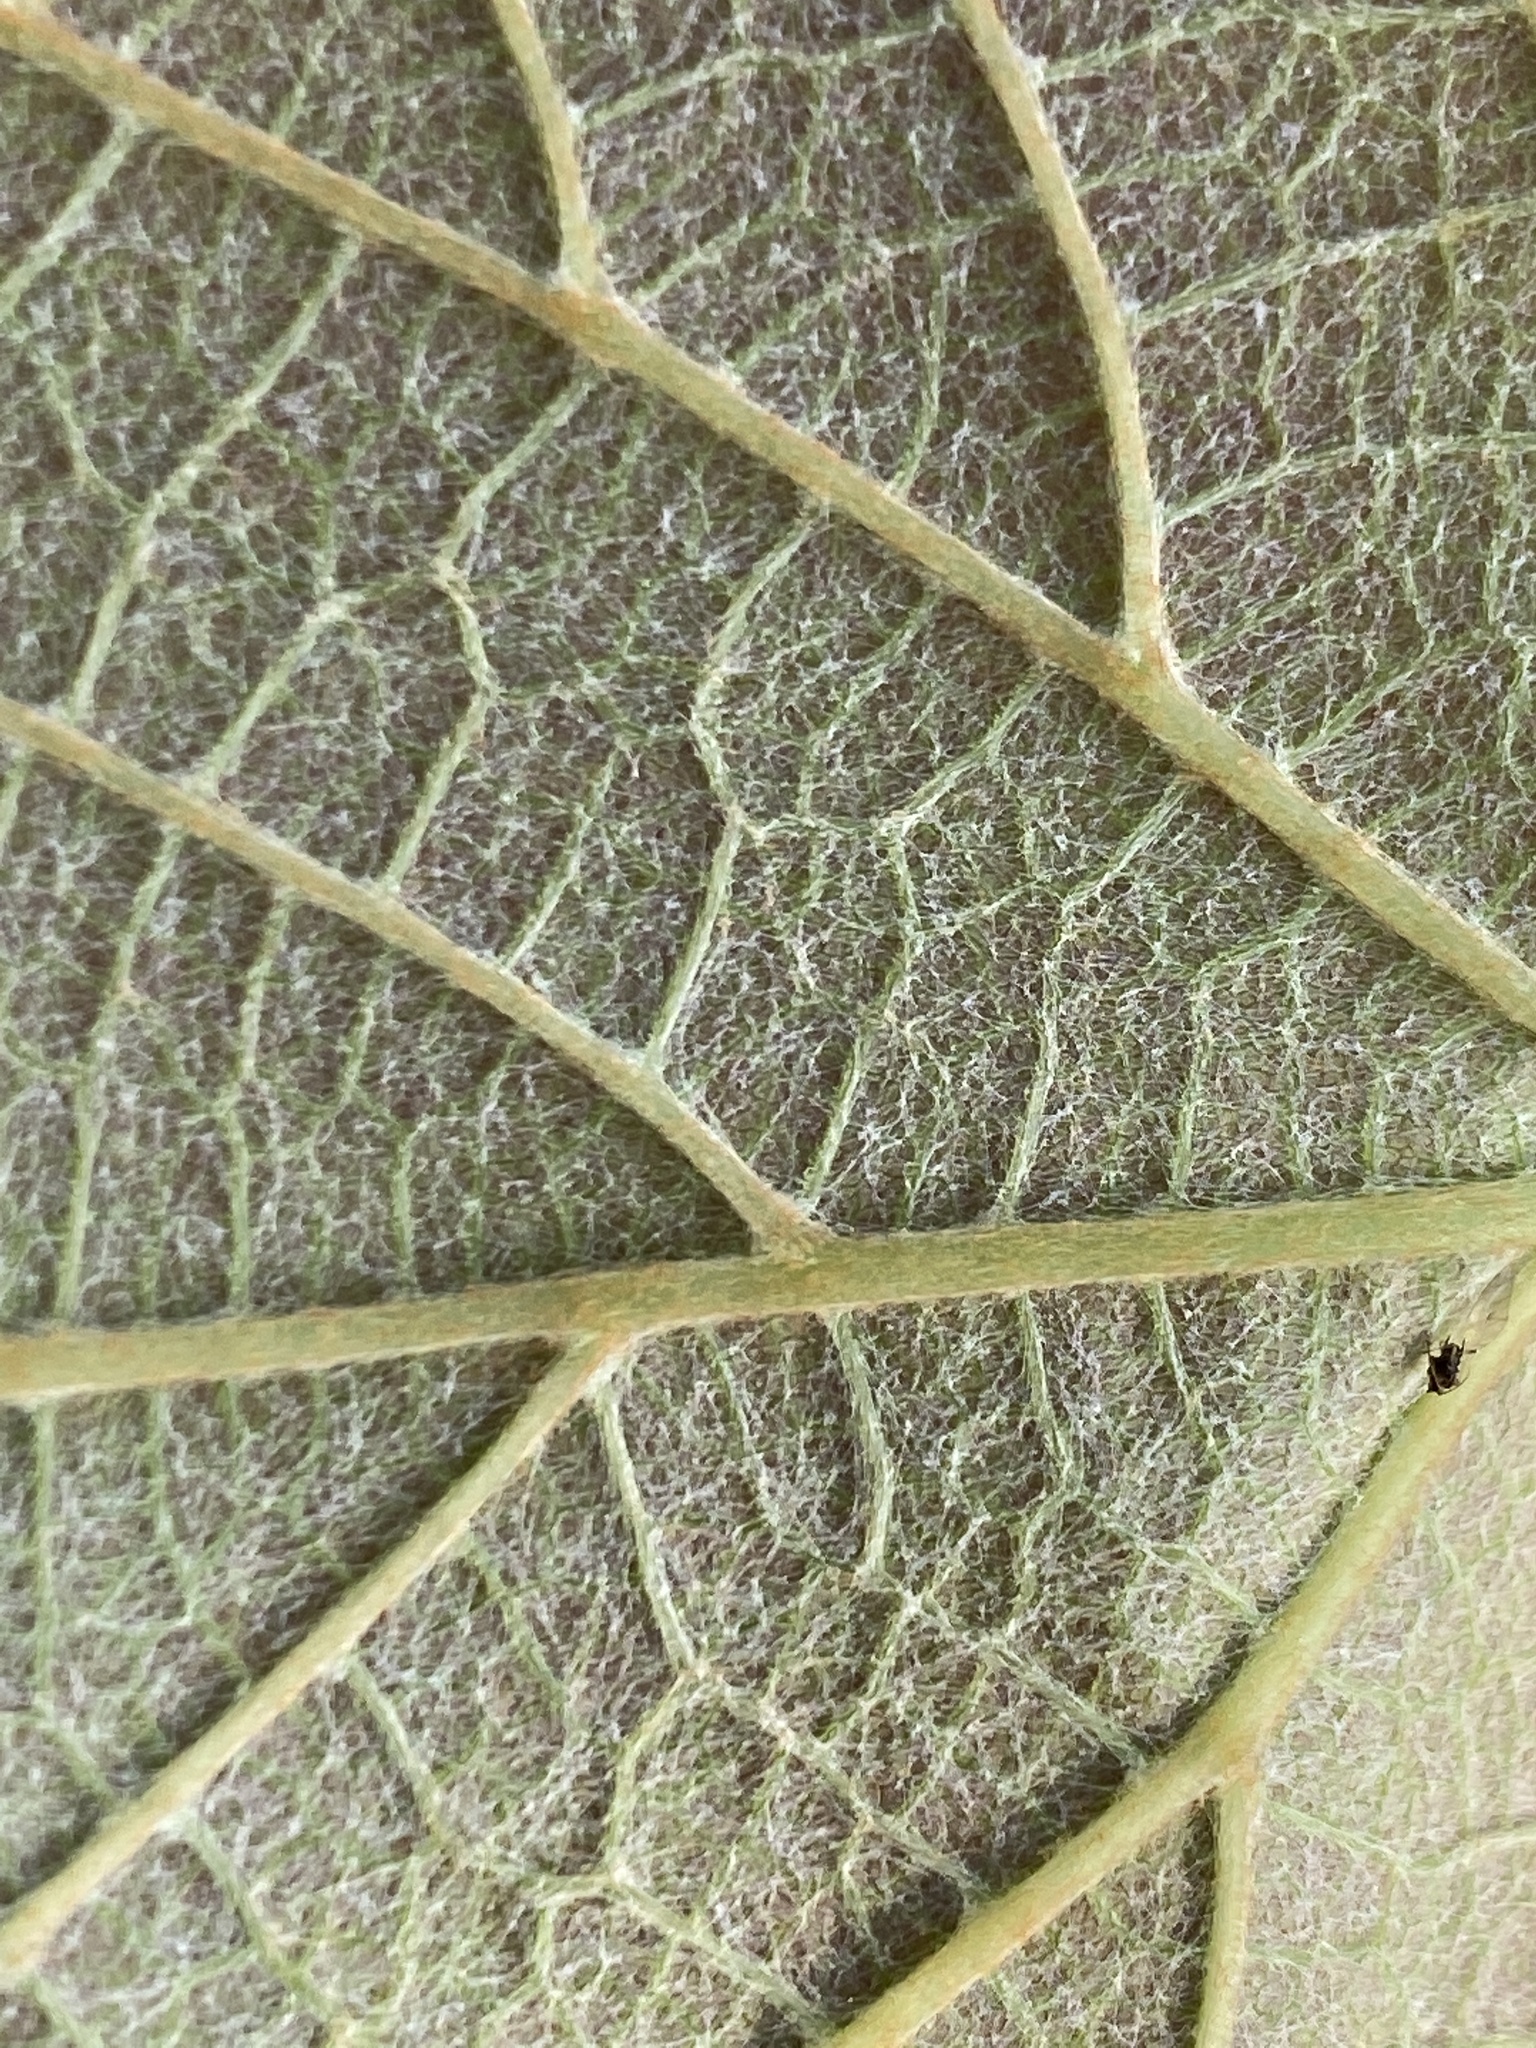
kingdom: Plantae
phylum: Tracheophyta
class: Magnoliopsida
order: Vitales
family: Vitaceae
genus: Vitis
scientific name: Vitis aestivalis
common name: Pigeon grape
